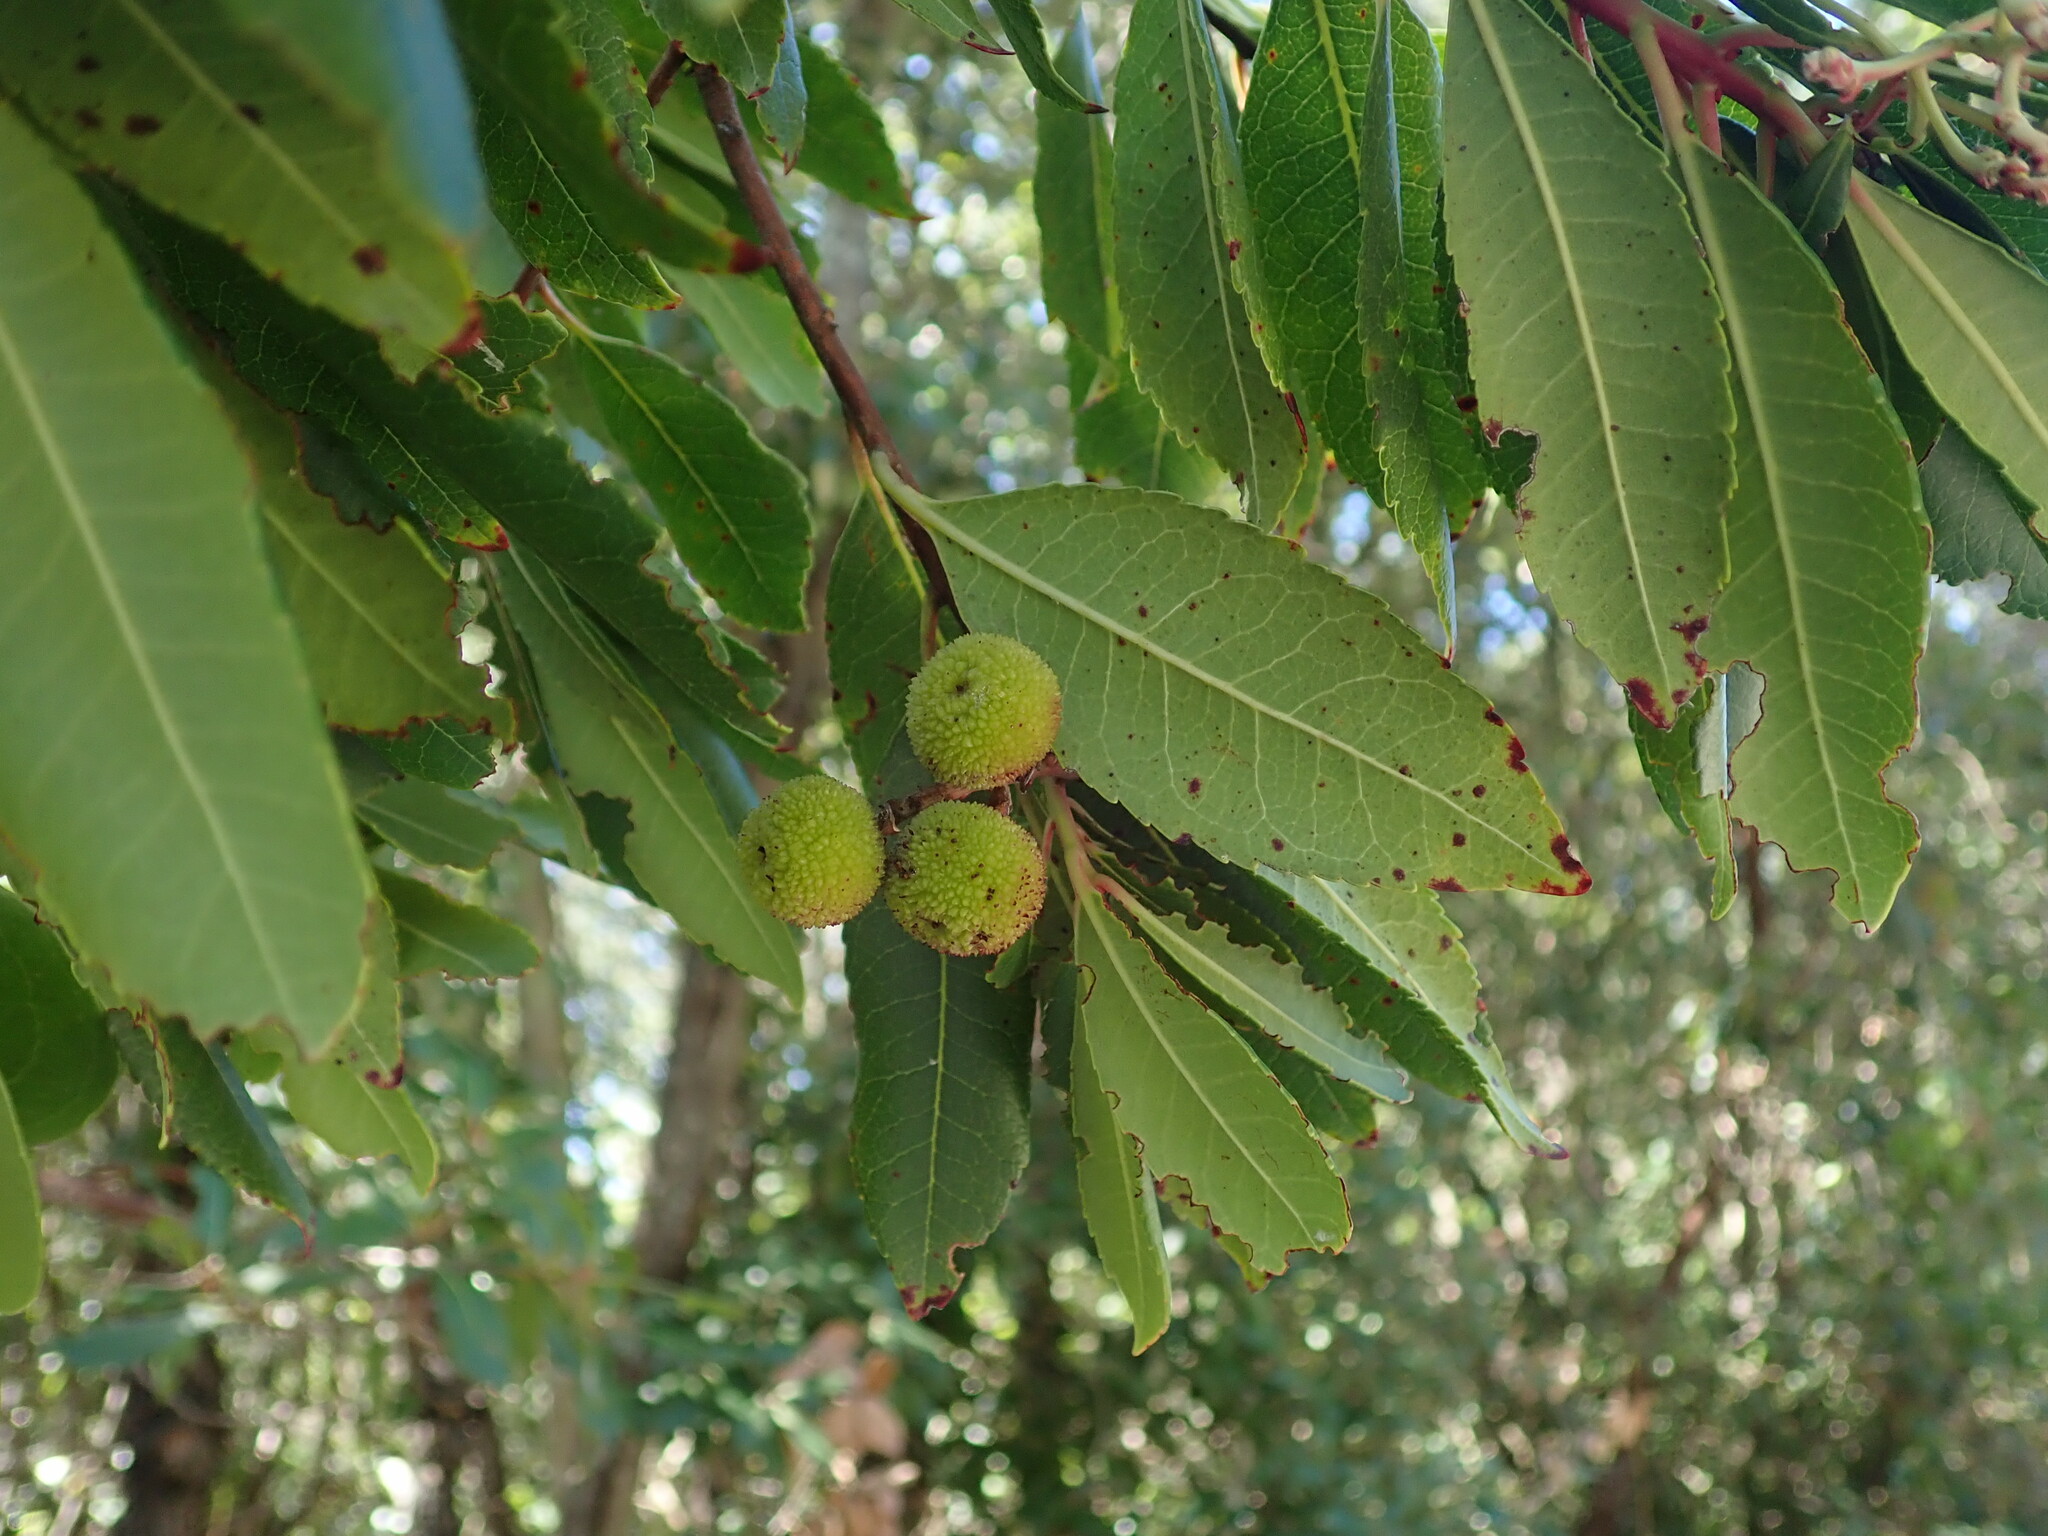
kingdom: Plantae
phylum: Tracheophyta
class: Magnoliopsida
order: Ericales
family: Ericaceae
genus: Arbutus
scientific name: Arbutus unedo
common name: Strawberry-tree
